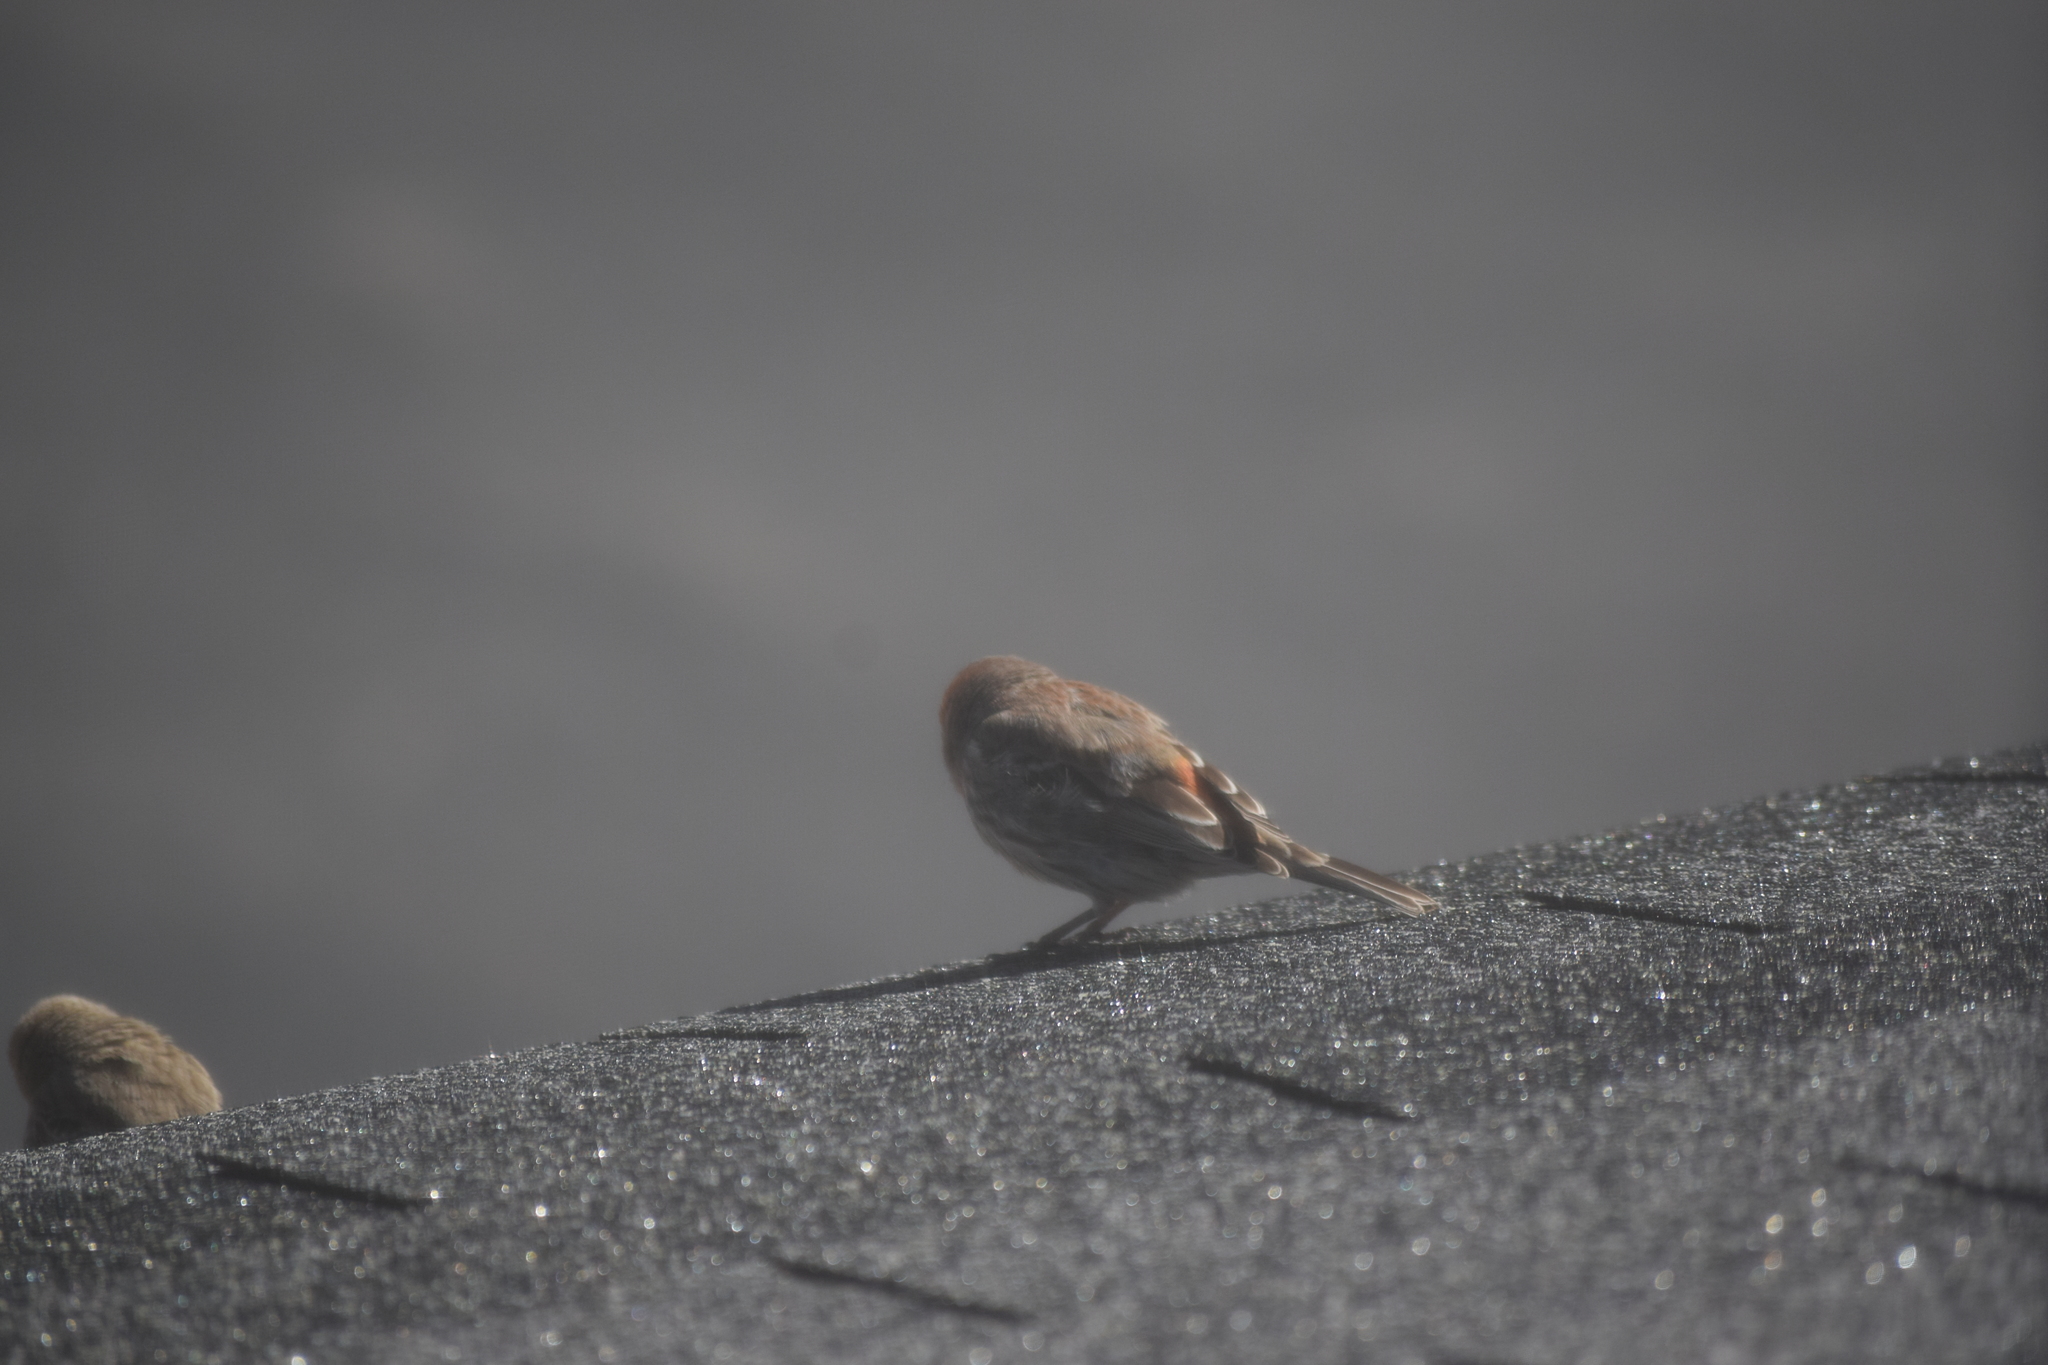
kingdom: Animalia
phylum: Chordata
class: Aves
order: Passeriformes
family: Fringillidae
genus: Haemorhous
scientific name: Haemorhous mexicanus
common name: House finch
